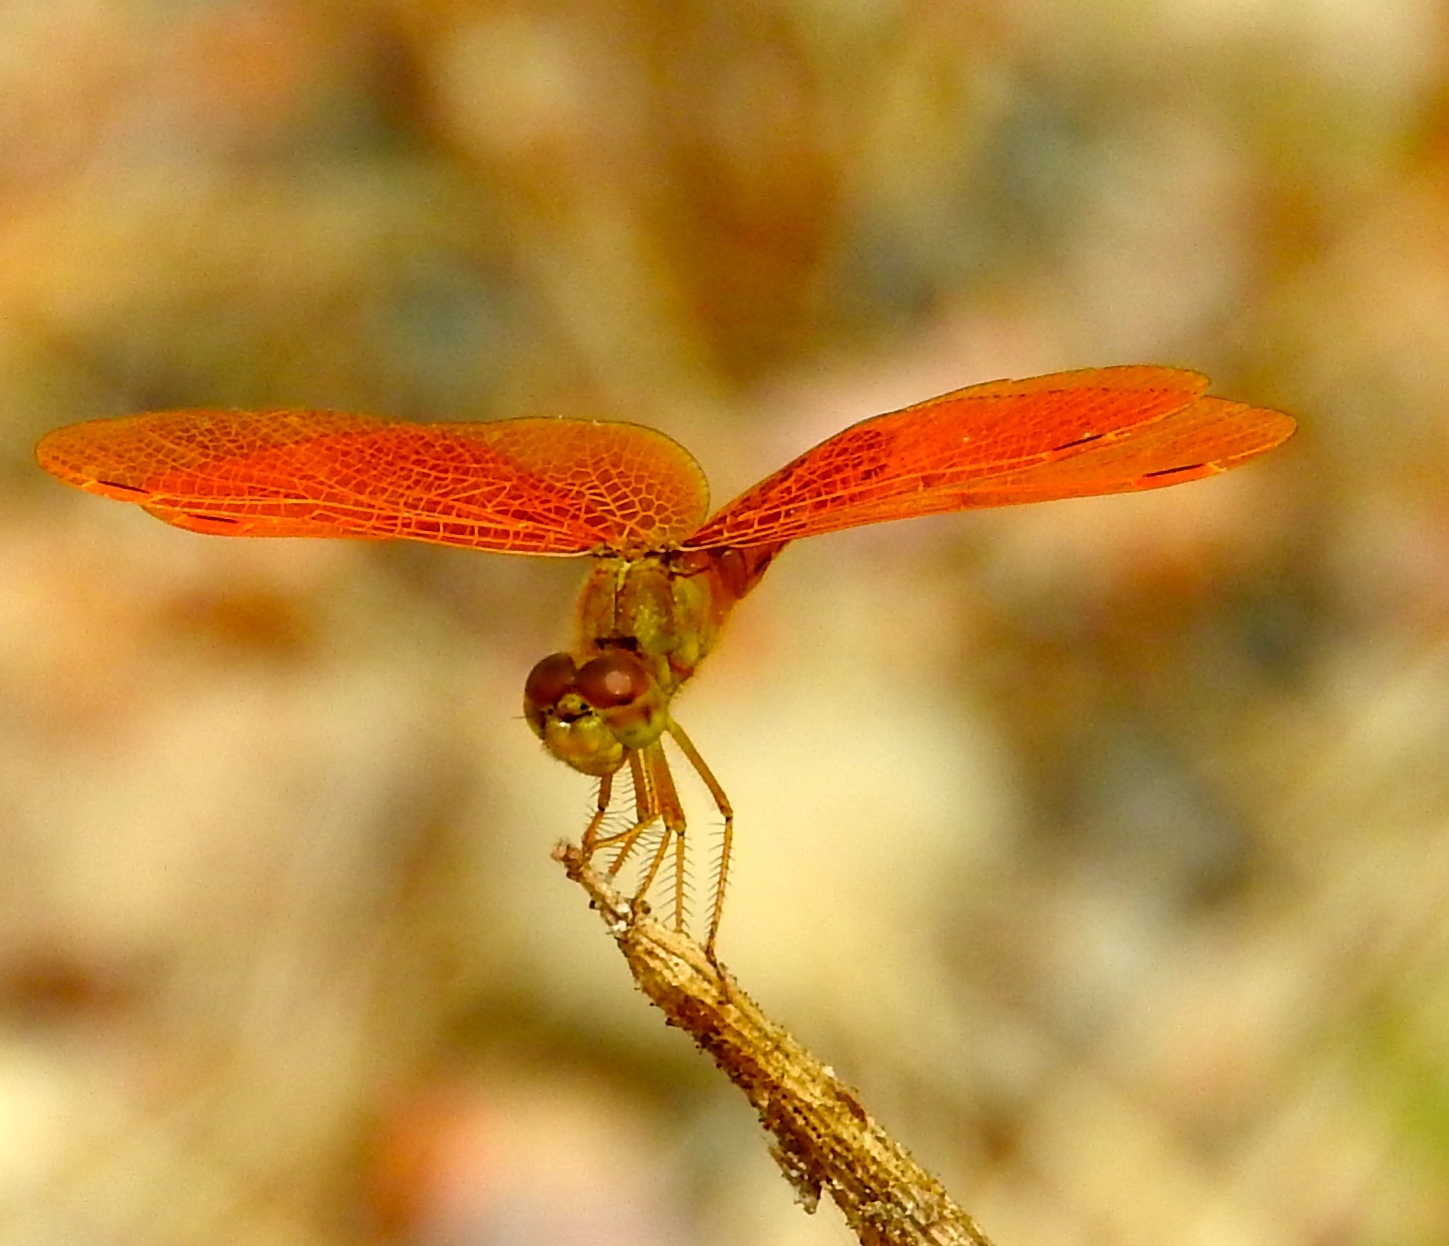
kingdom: Animalia
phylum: Arthropoda
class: Insecta
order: Odonata
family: Libellulidae
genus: Perithemis
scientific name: Perithemis
